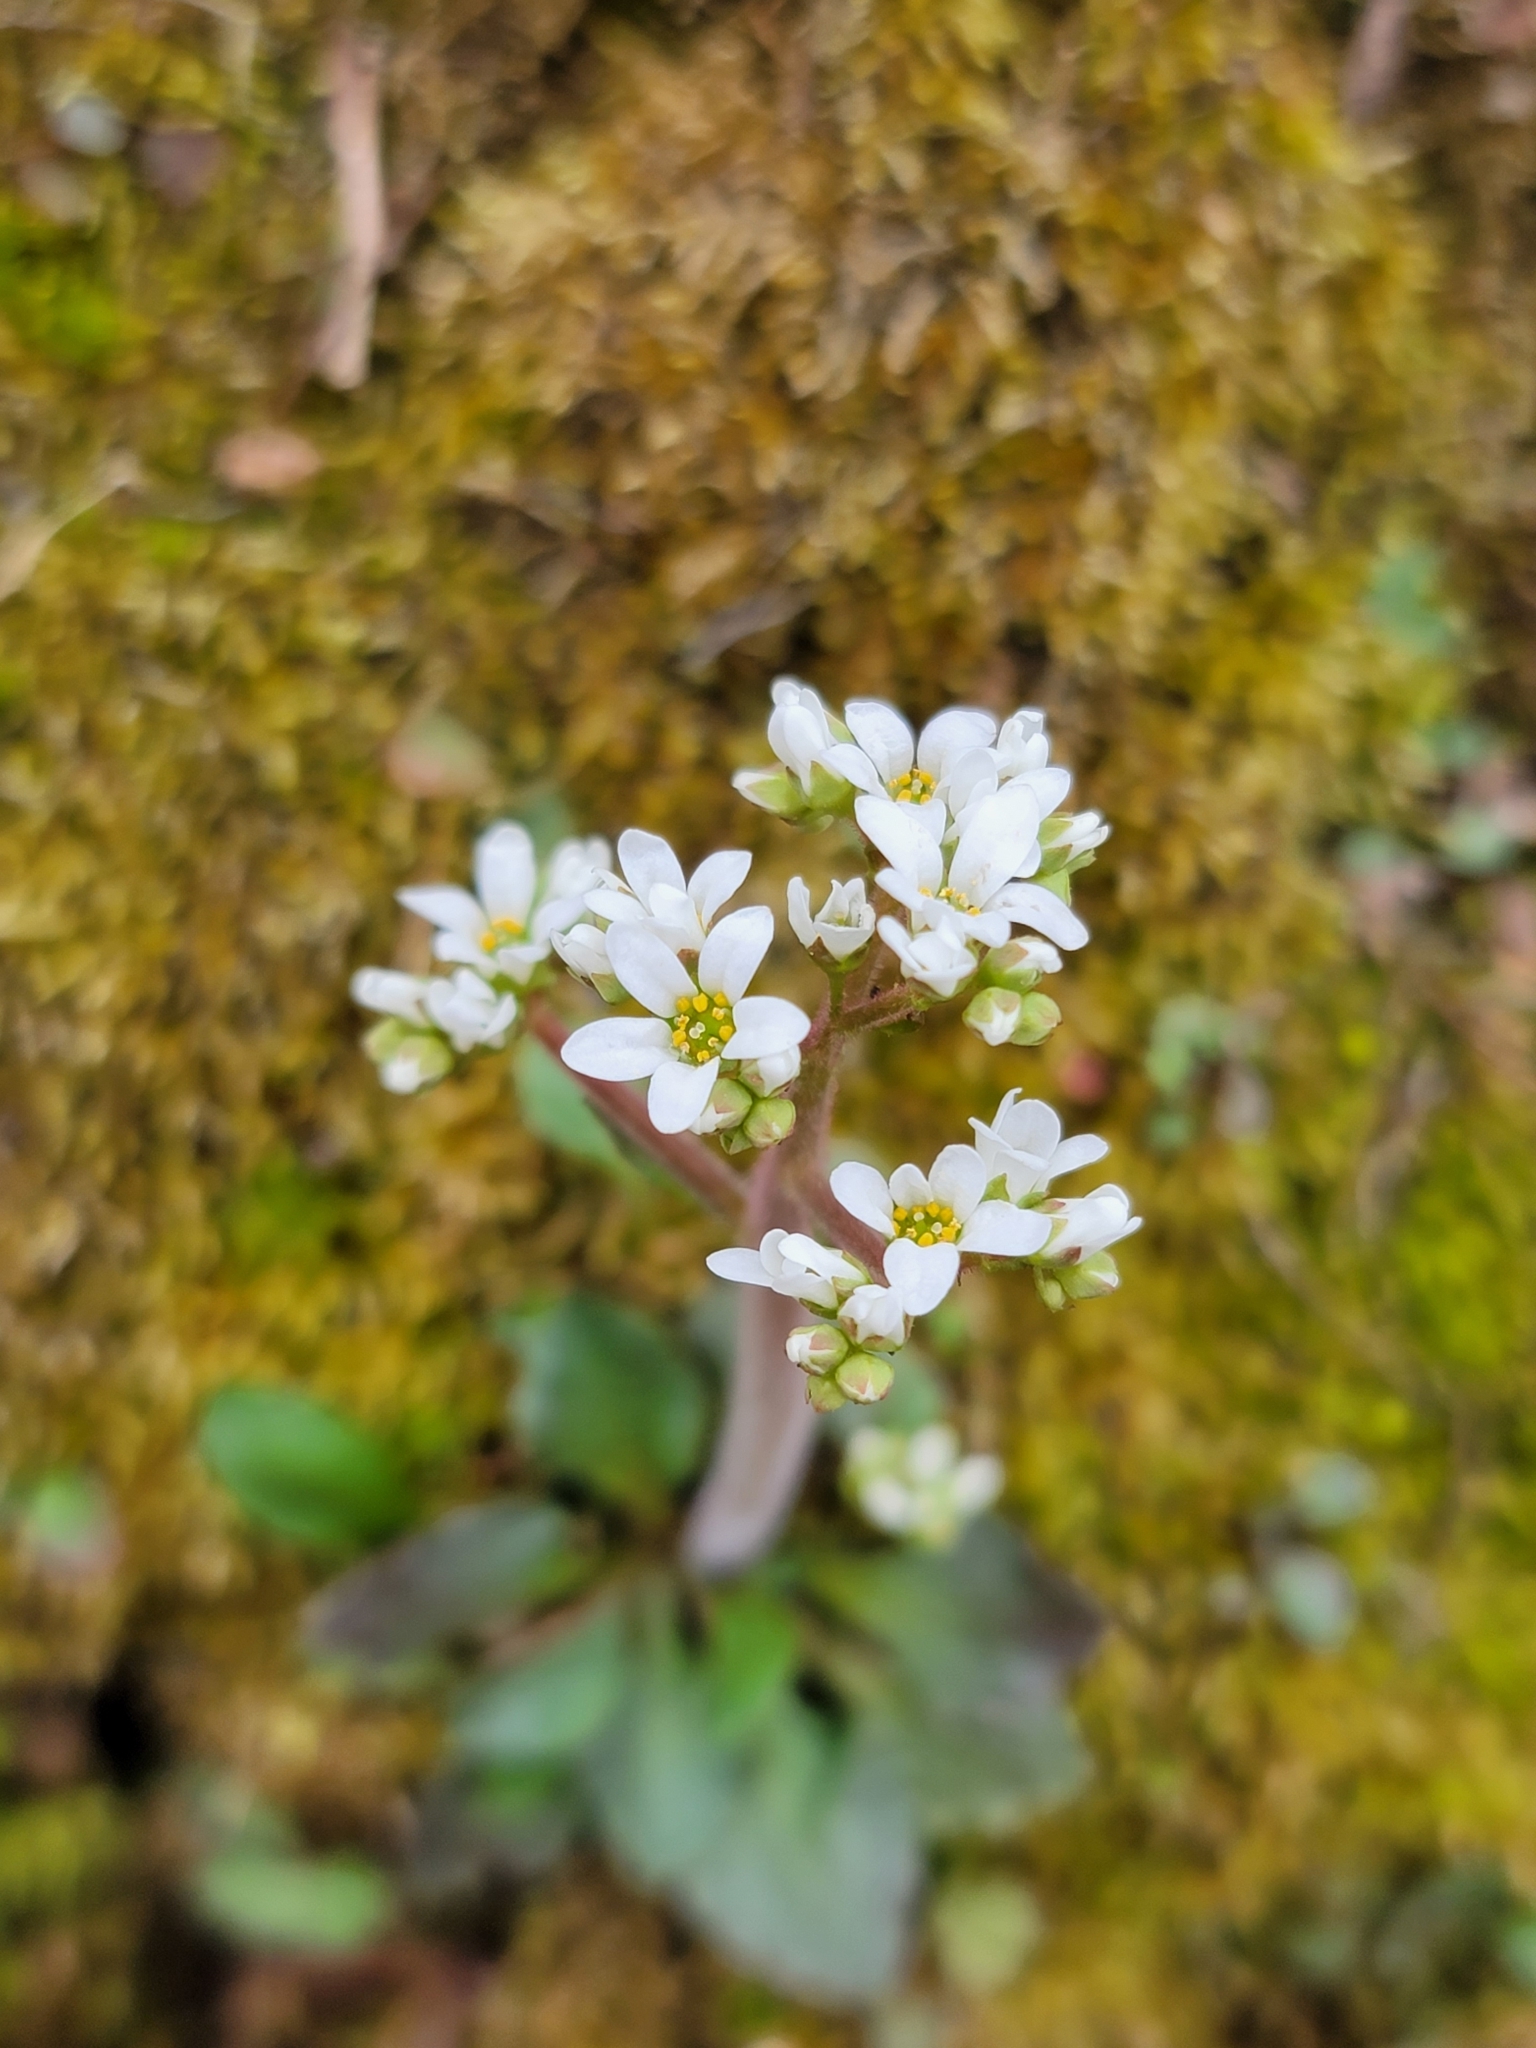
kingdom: Plantae
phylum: Tracheophyta
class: Magnoliopsida
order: Saxifragales
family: Saxifragaceae
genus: Micranthes
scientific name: Micranthes virginiensis
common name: Early saxifrage
